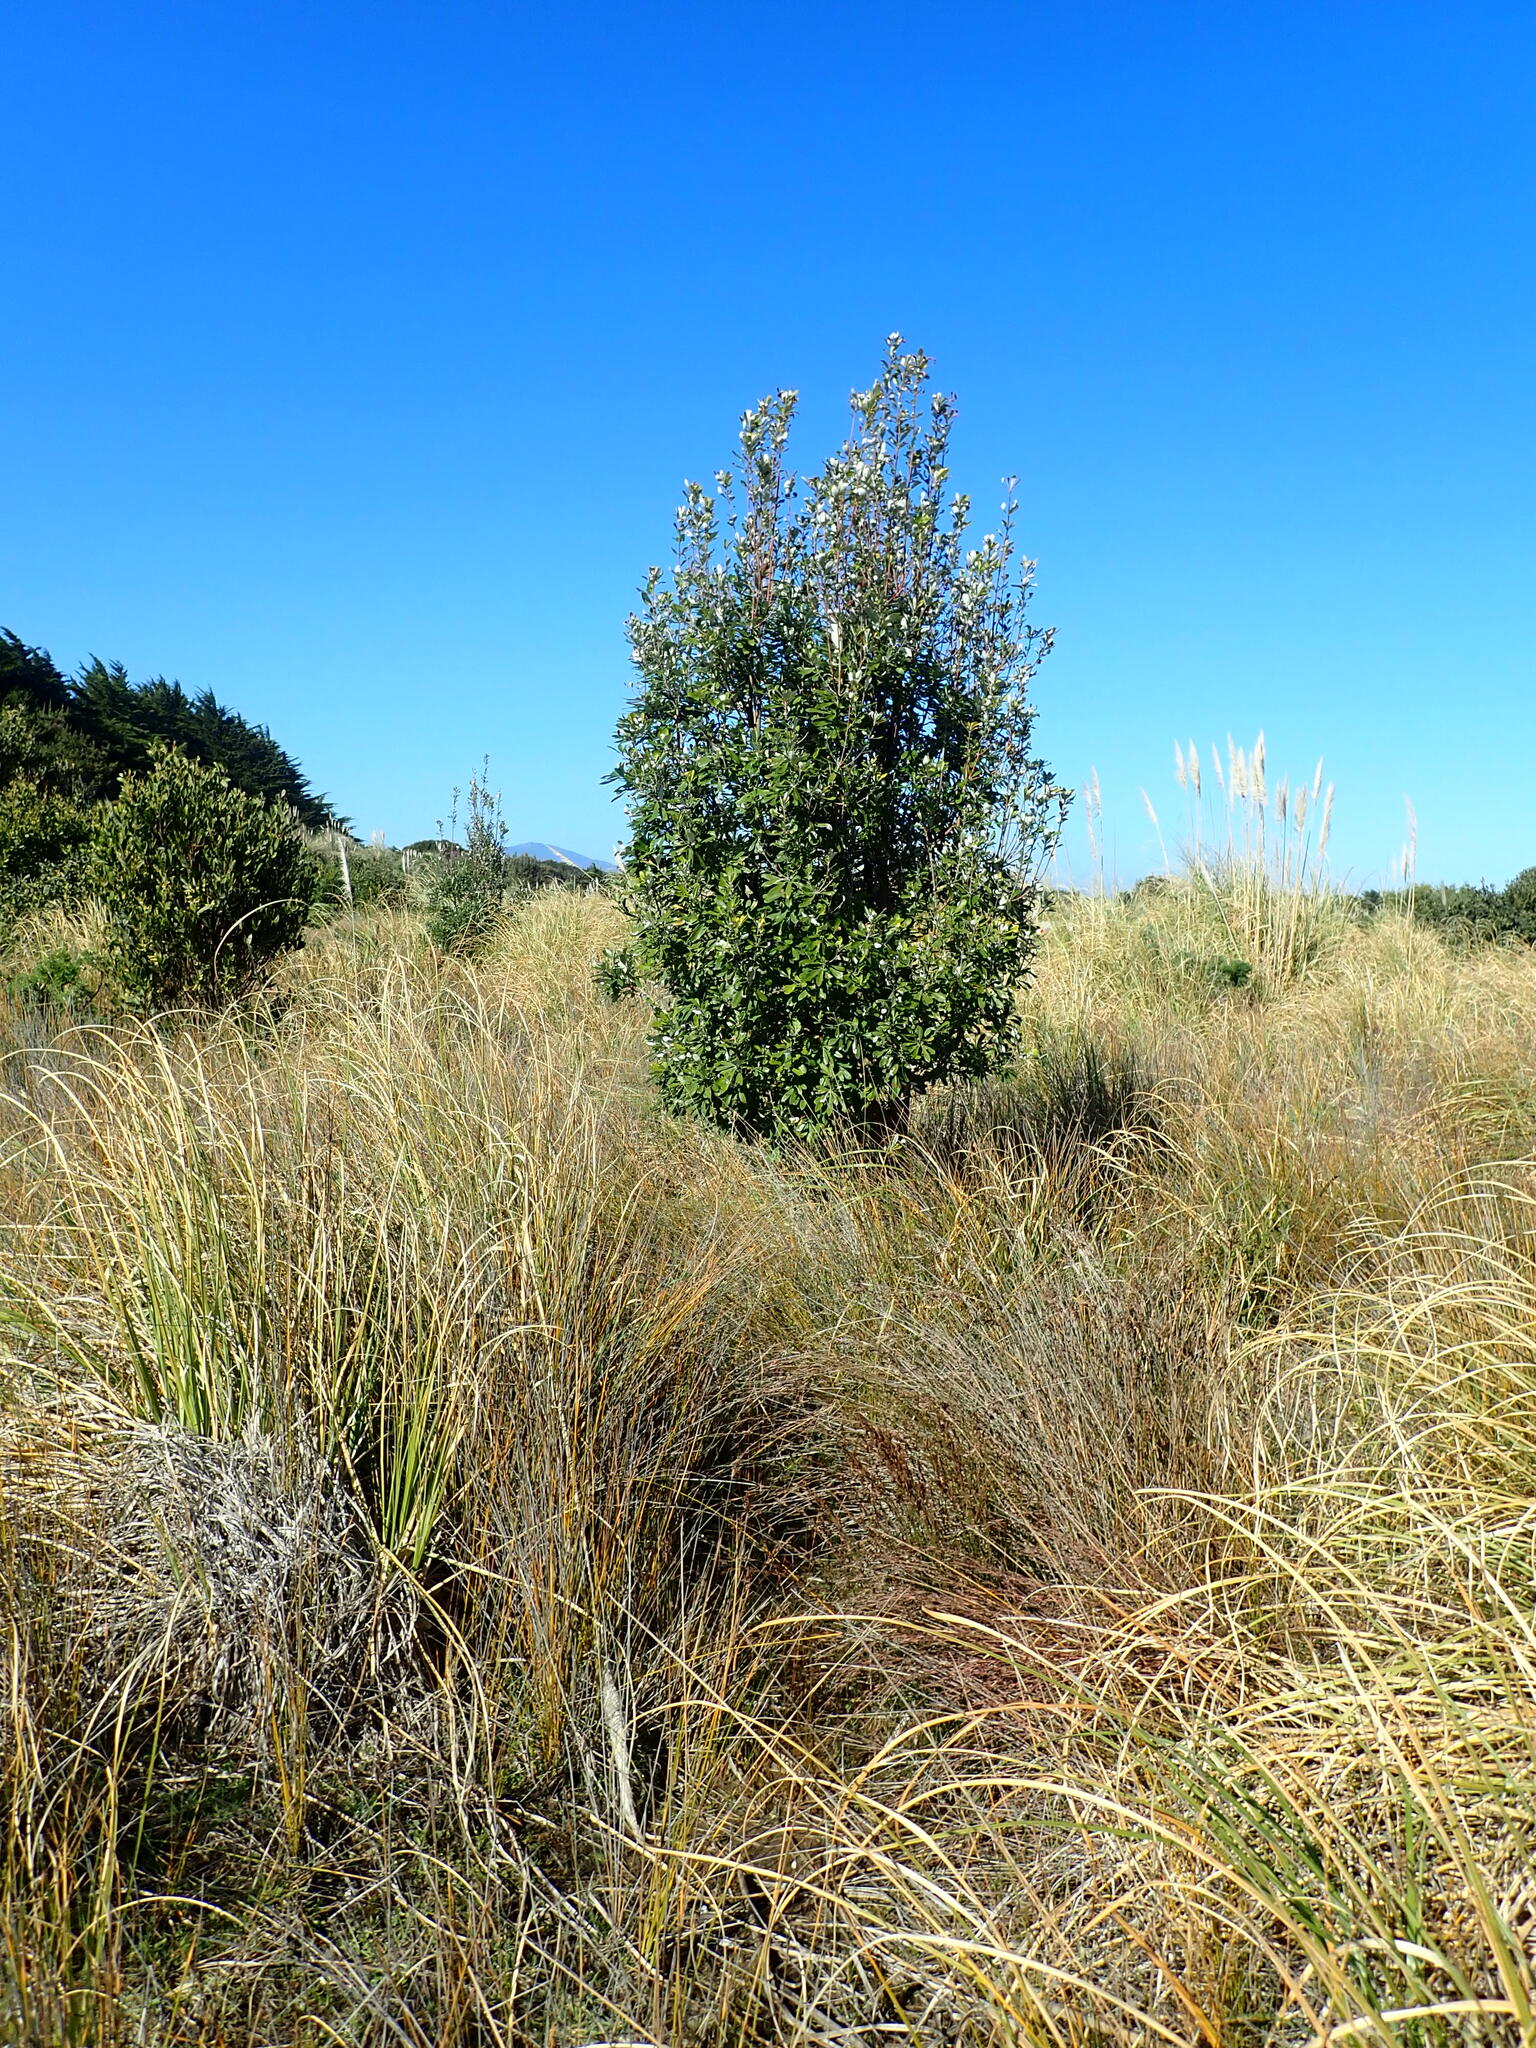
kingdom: Plantae
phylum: Tracheophyta
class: Magnoliopsida
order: Proteales
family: Proteaceae
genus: Banksia
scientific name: Banksia integrifolia
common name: White-honeysuckle
